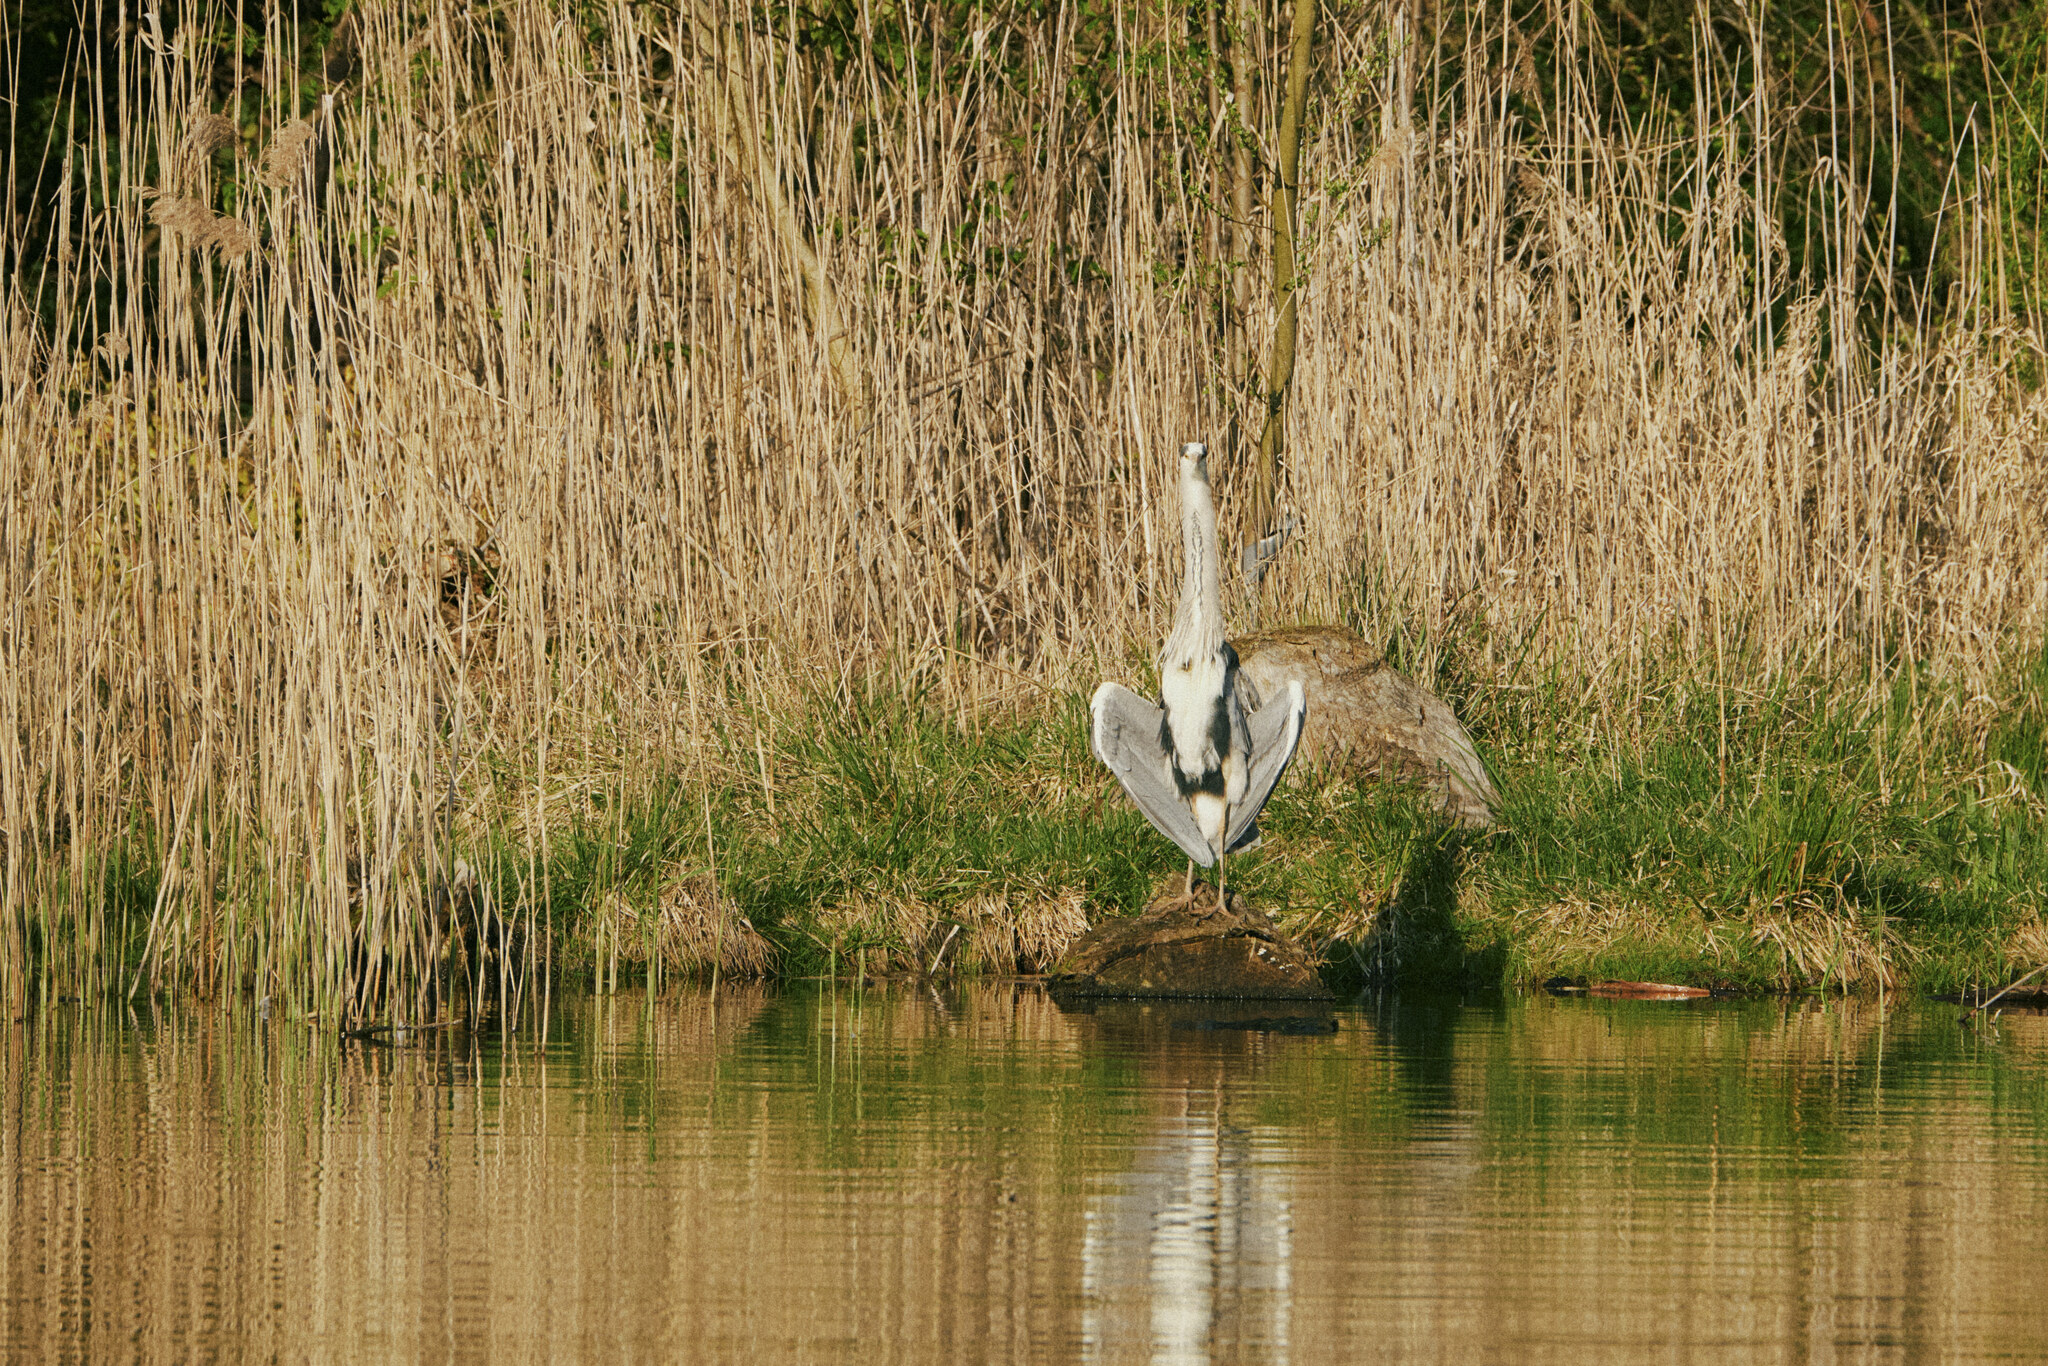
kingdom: Animalia
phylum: Chordata
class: Aves
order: Pelecaniformes
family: Ardeidae
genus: Ardea
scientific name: Ardea cinerea
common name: Grey heron
